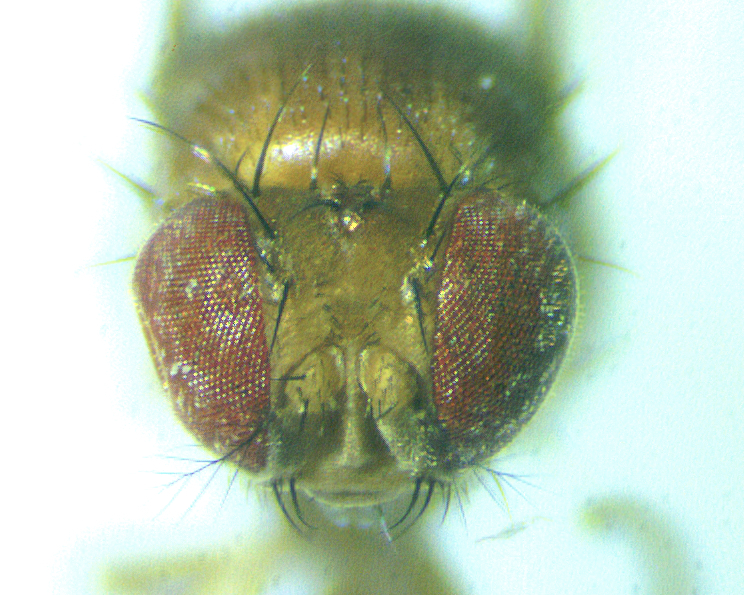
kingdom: Animalia
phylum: Arthropoda
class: Insecta
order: Diptera
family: Drosophilidae
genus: Drosophila
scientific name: Drosophila suzukii
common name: Spotted-wing drosophila
